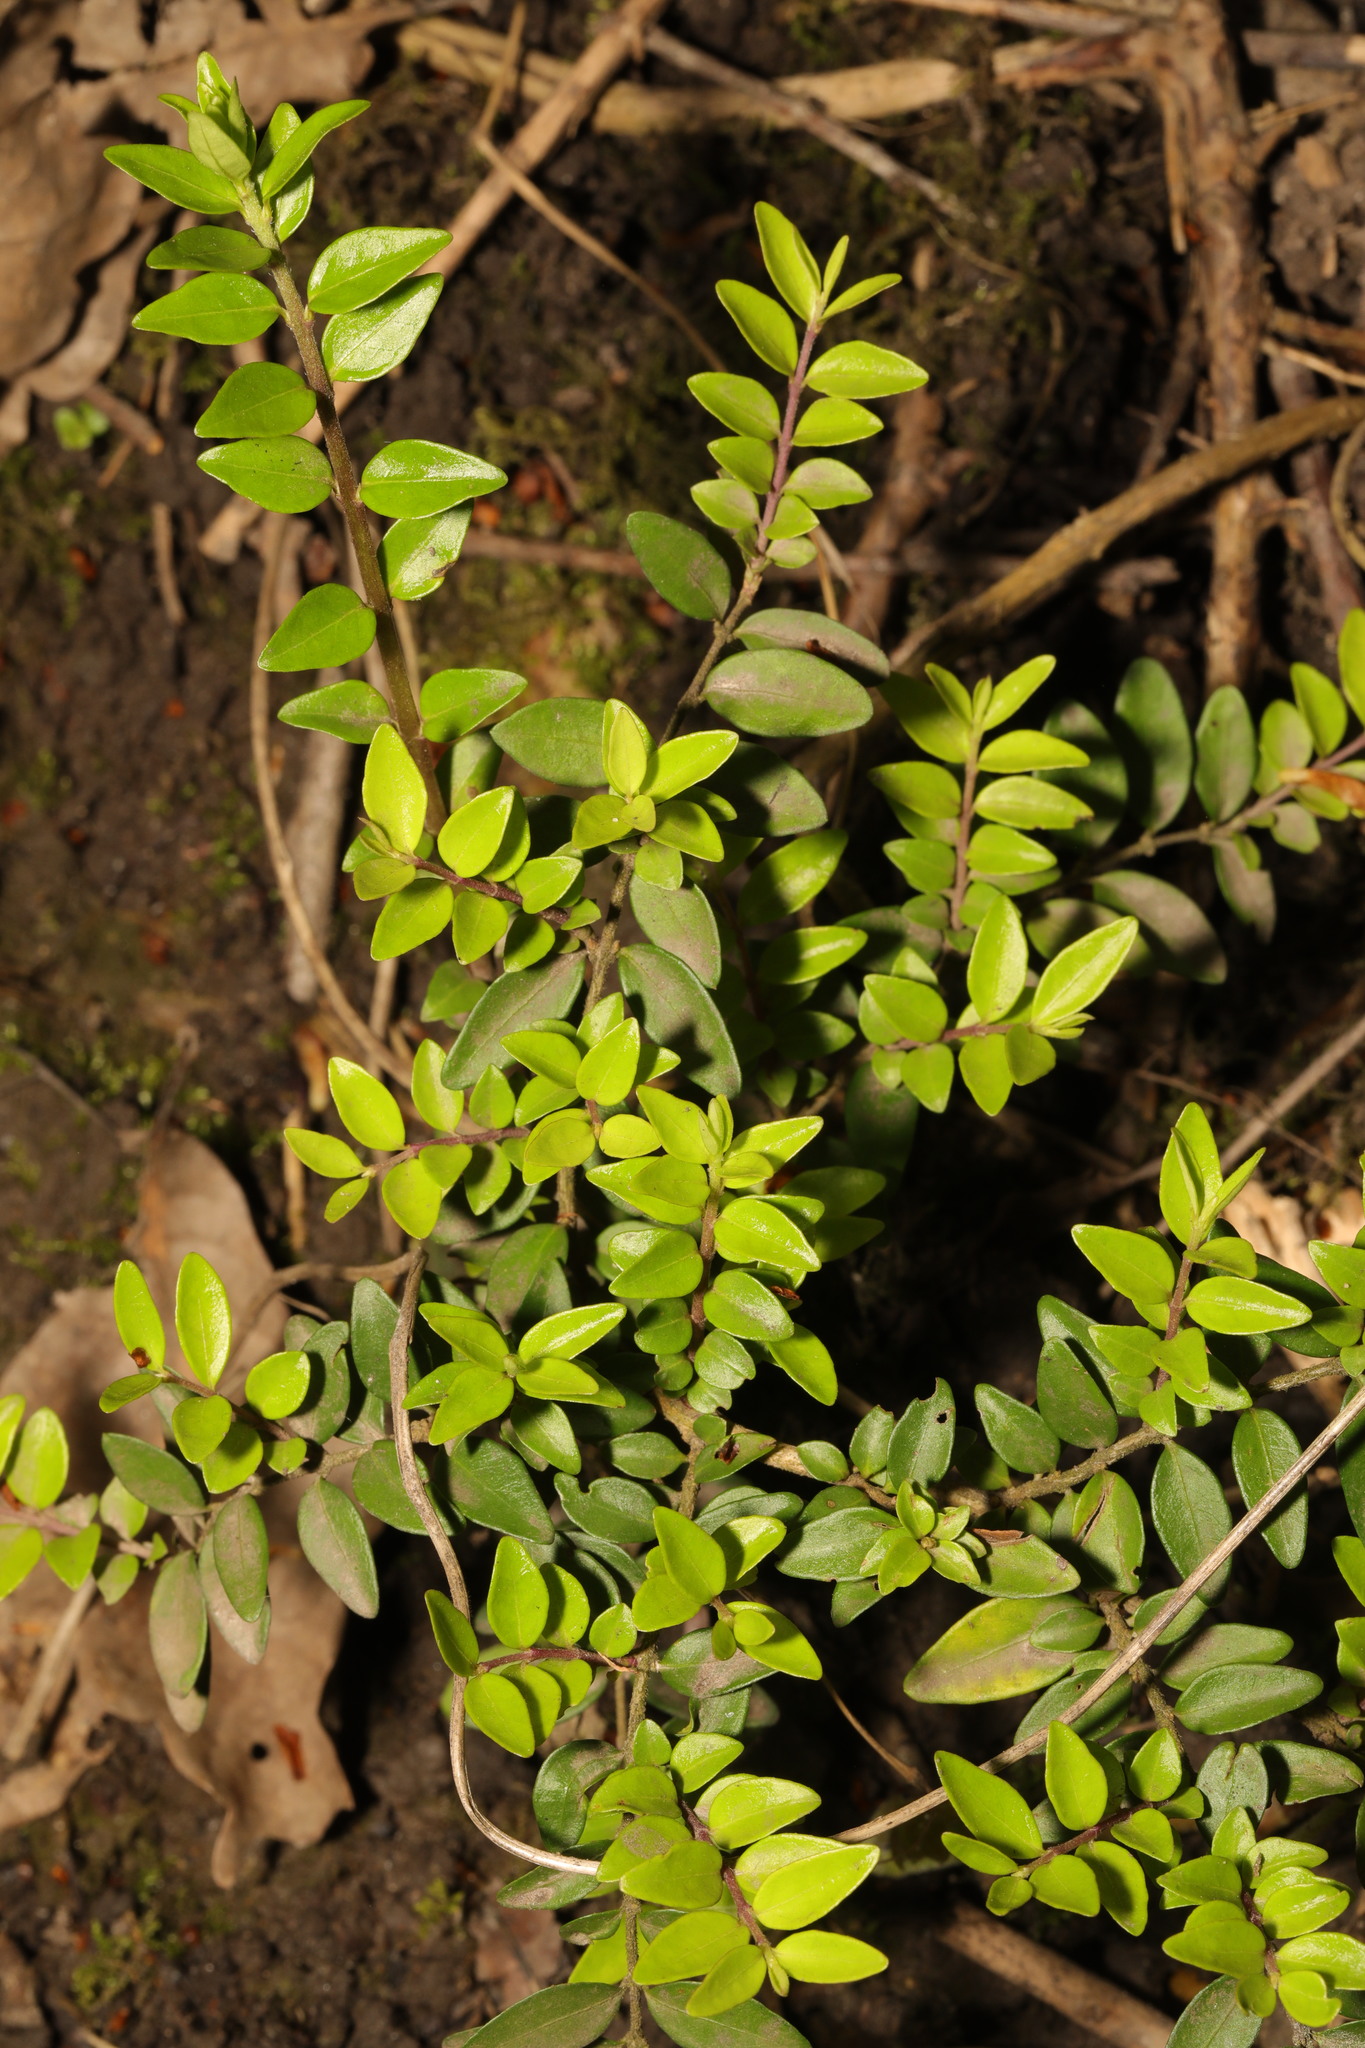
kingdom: Plantae
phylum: Tracheophyta
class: Magnoliopsida
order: Dipsacales
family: Caprifoliaceae
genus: Lonicera
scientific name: Lonicera pileata
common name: Box-leaved honeysuckle
